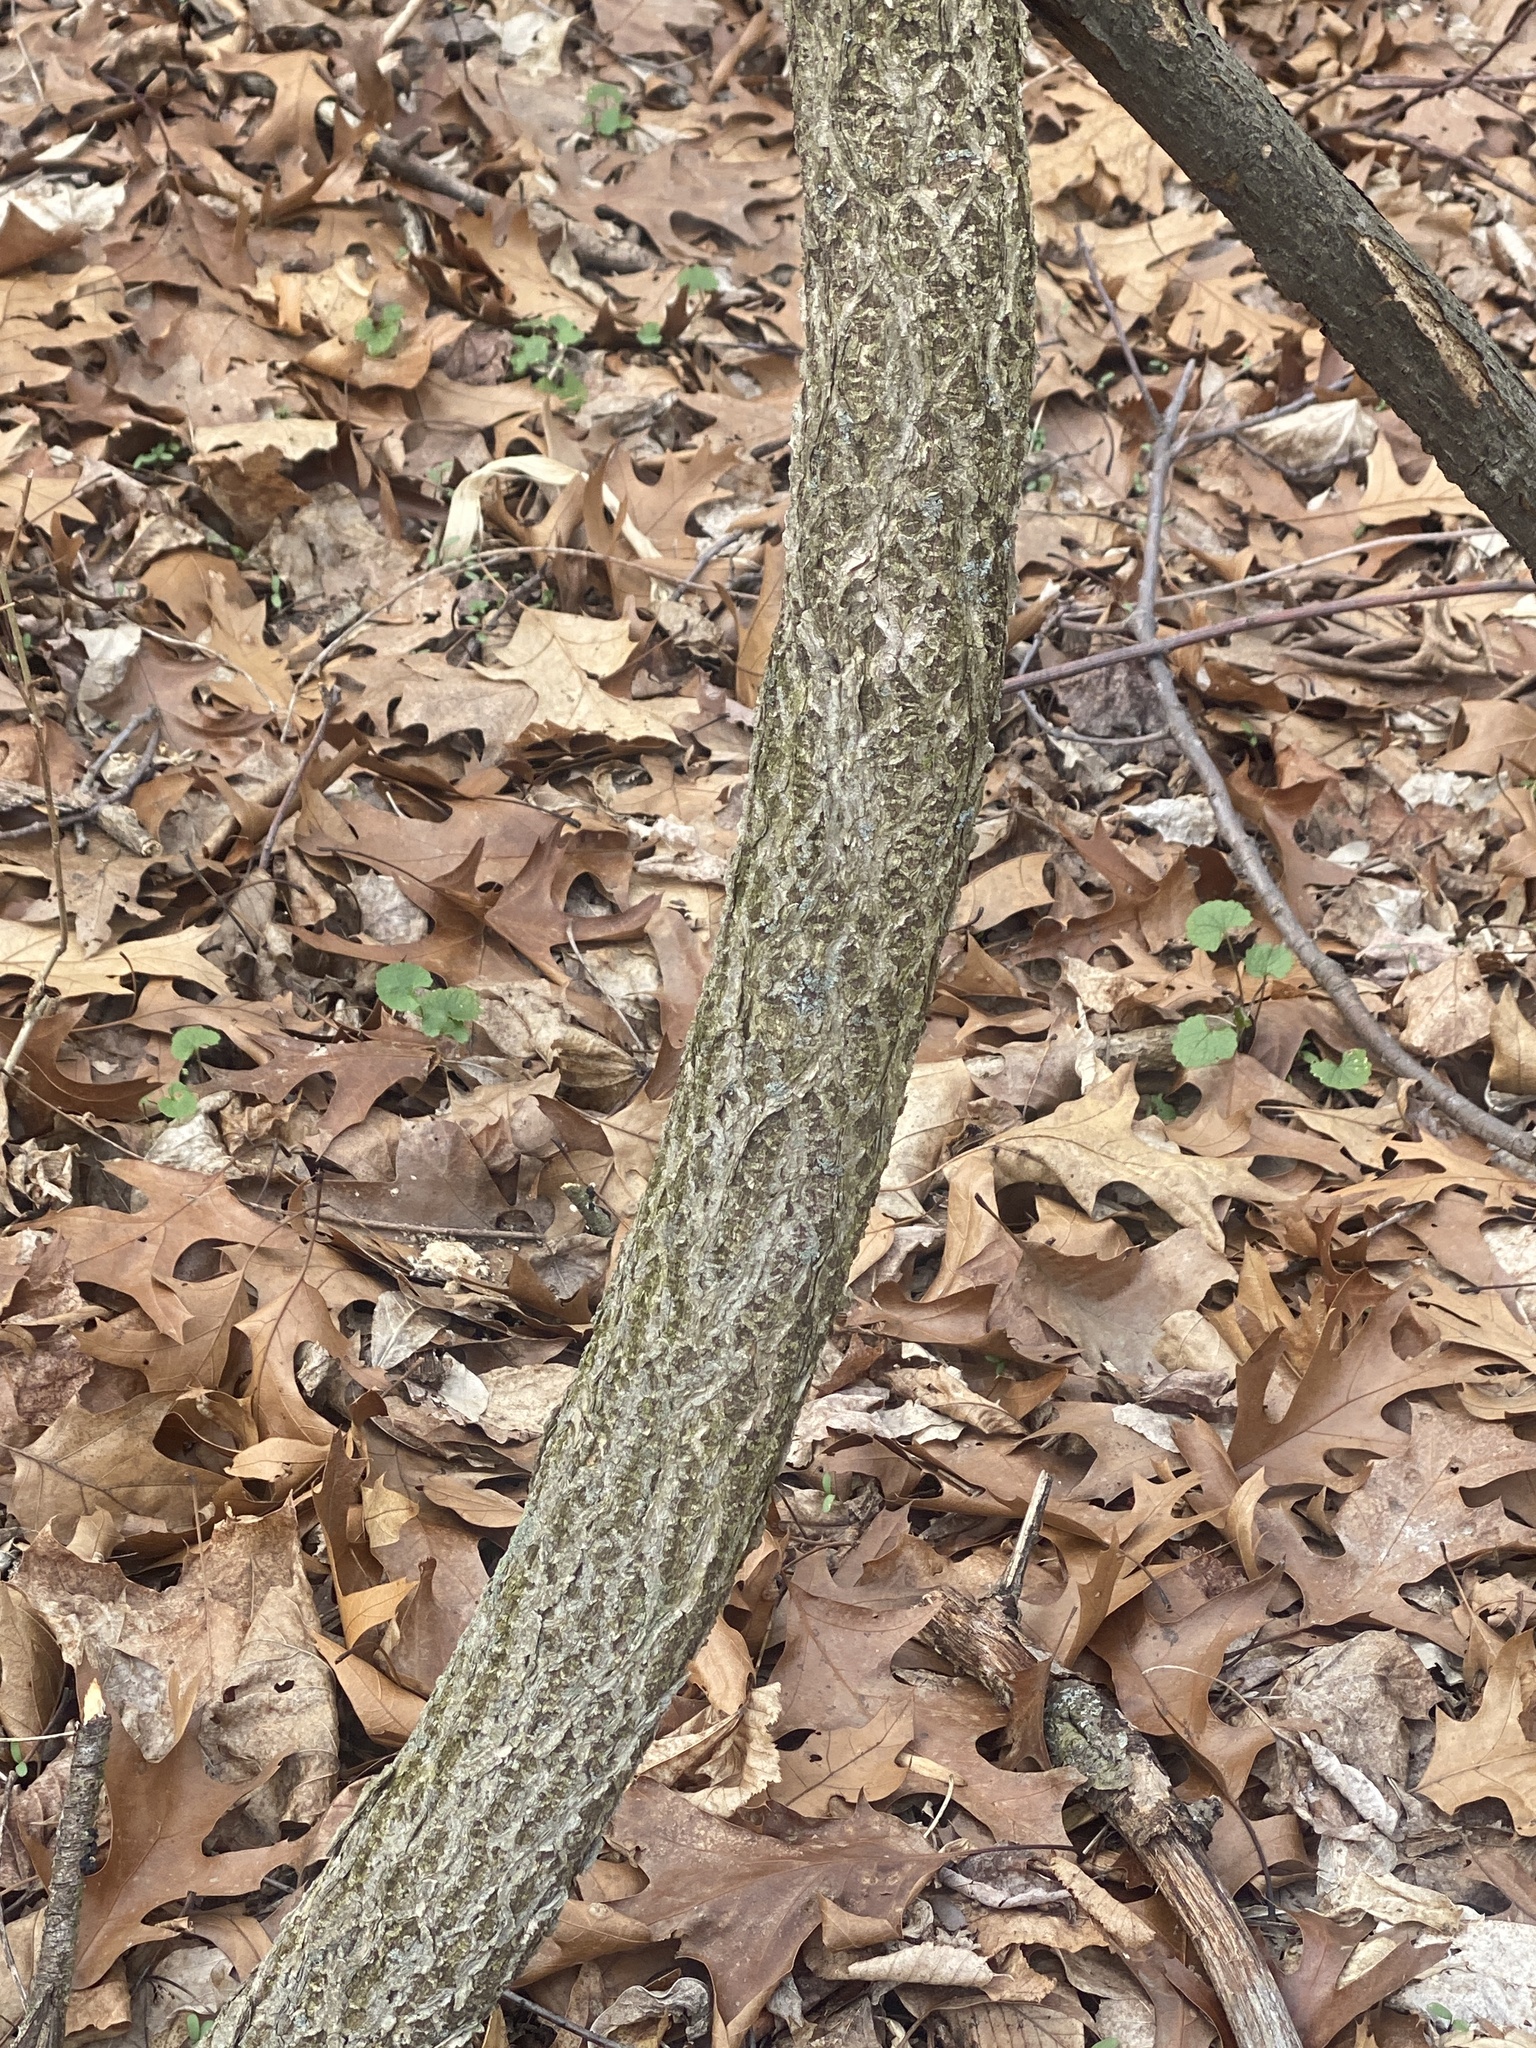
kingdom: Plantae
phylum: Tracheophyta
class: Magnoliopsida
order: Celastrales
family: Celastraceae
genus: Celastrus
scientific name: Celastrus orbiculatus
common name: Oriental bittersweet
